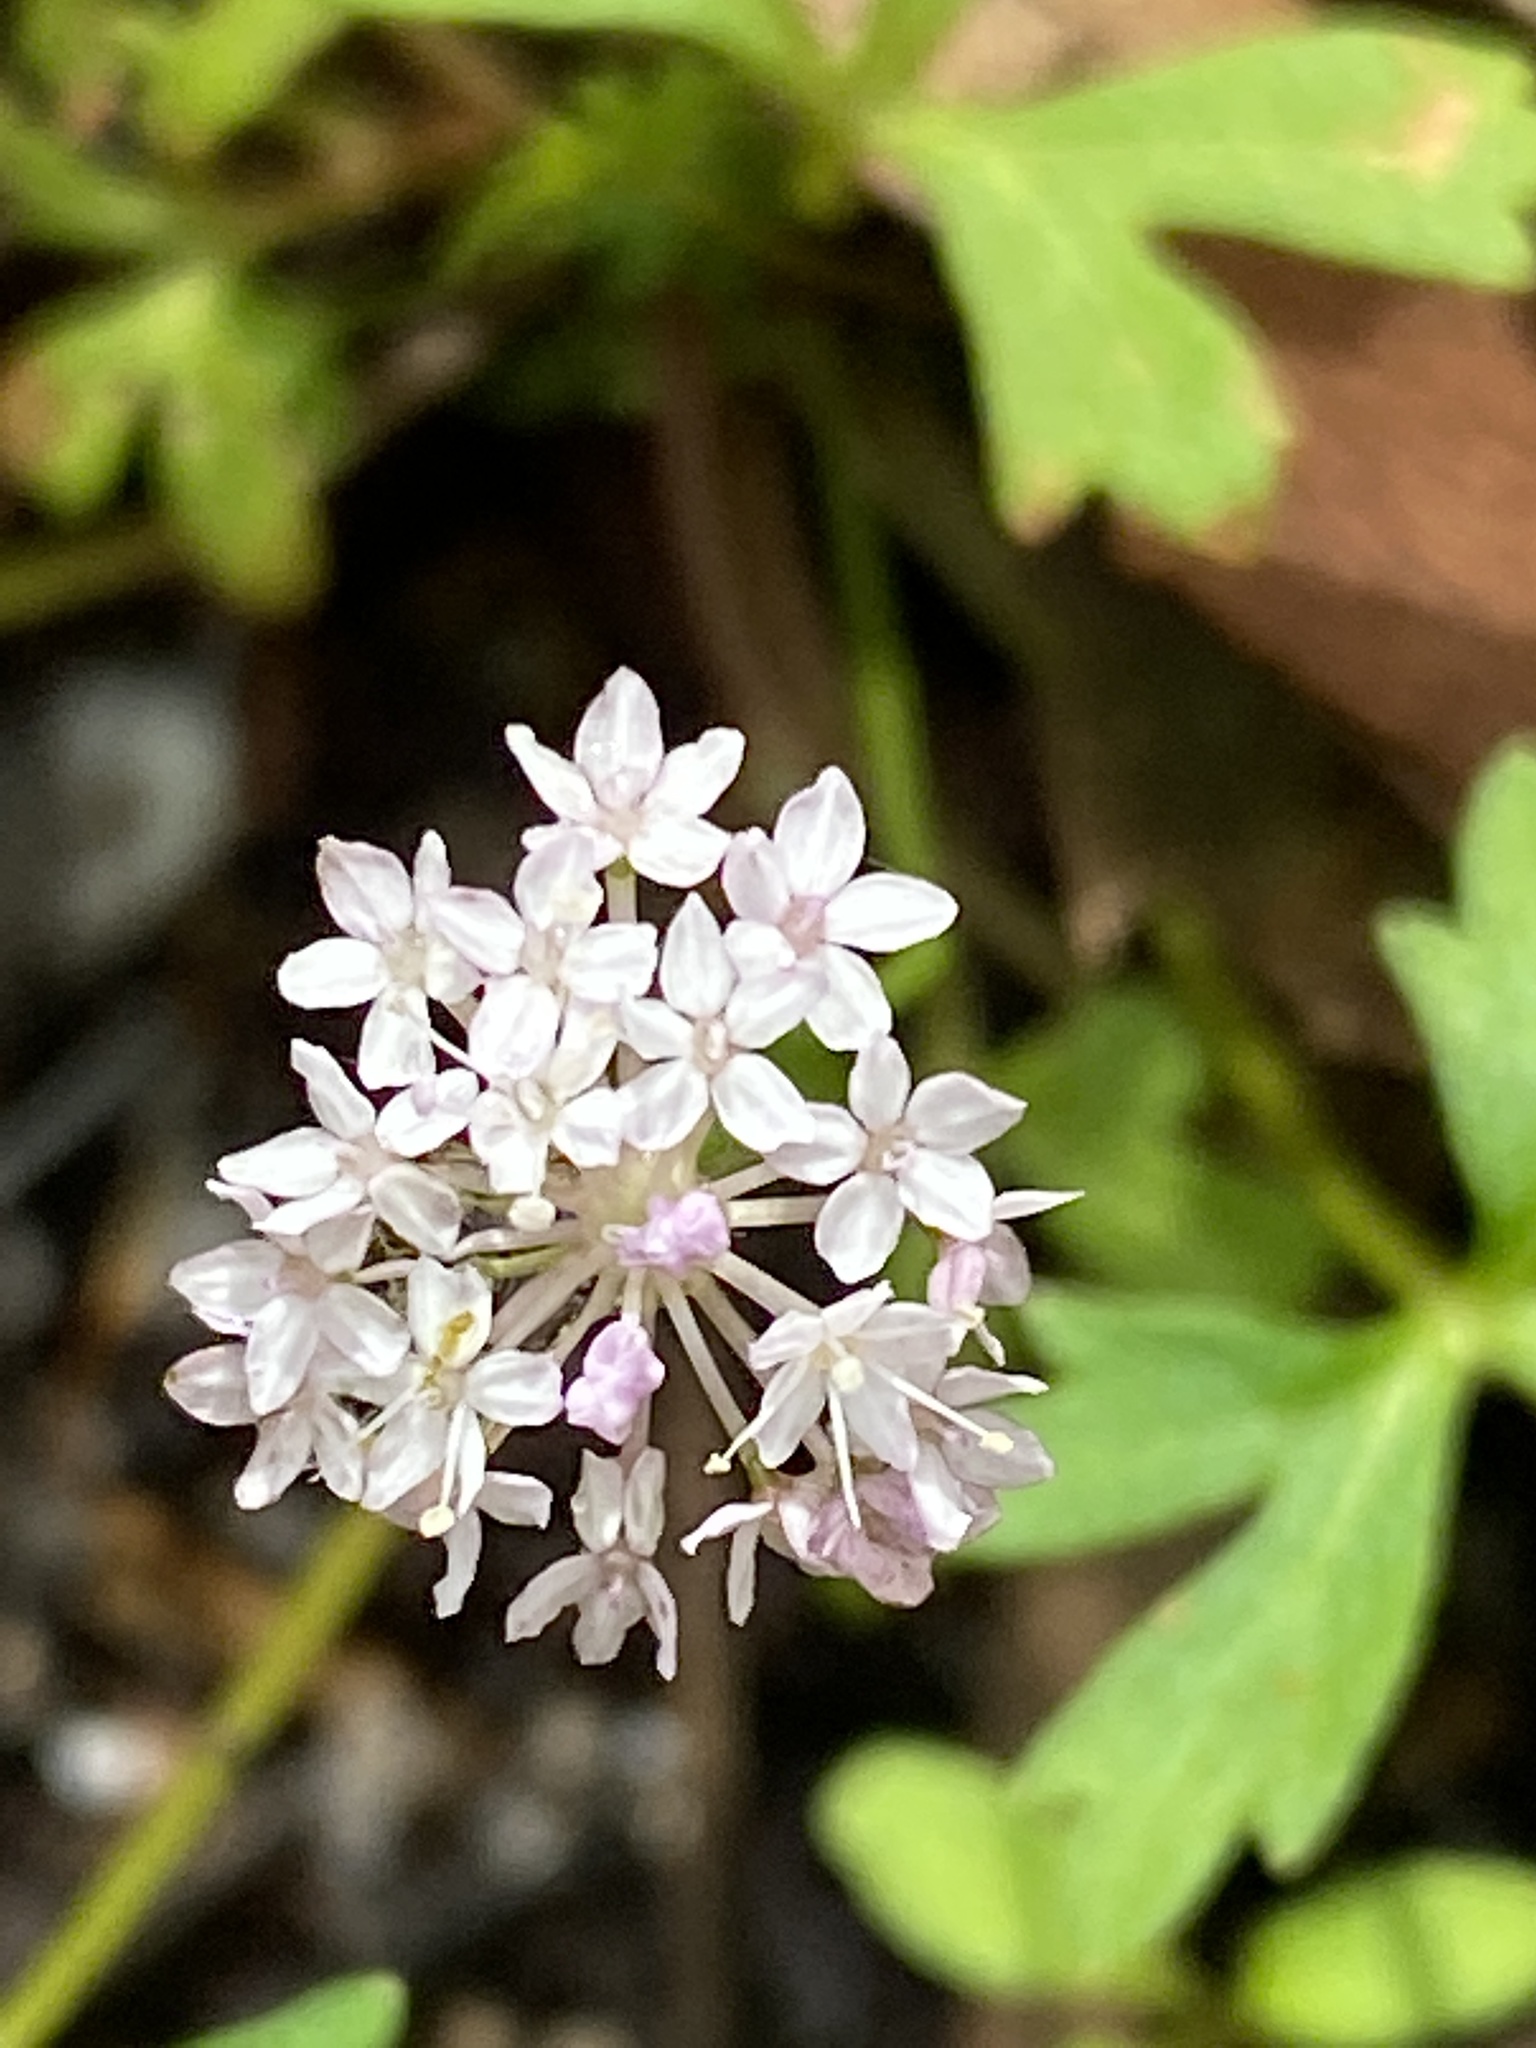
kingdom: Plantae
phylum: Tracheophyta
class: Magnoliopsida
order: Apiales
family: Araliaceae
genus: Trachymene
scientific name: Trachymene procumbens
